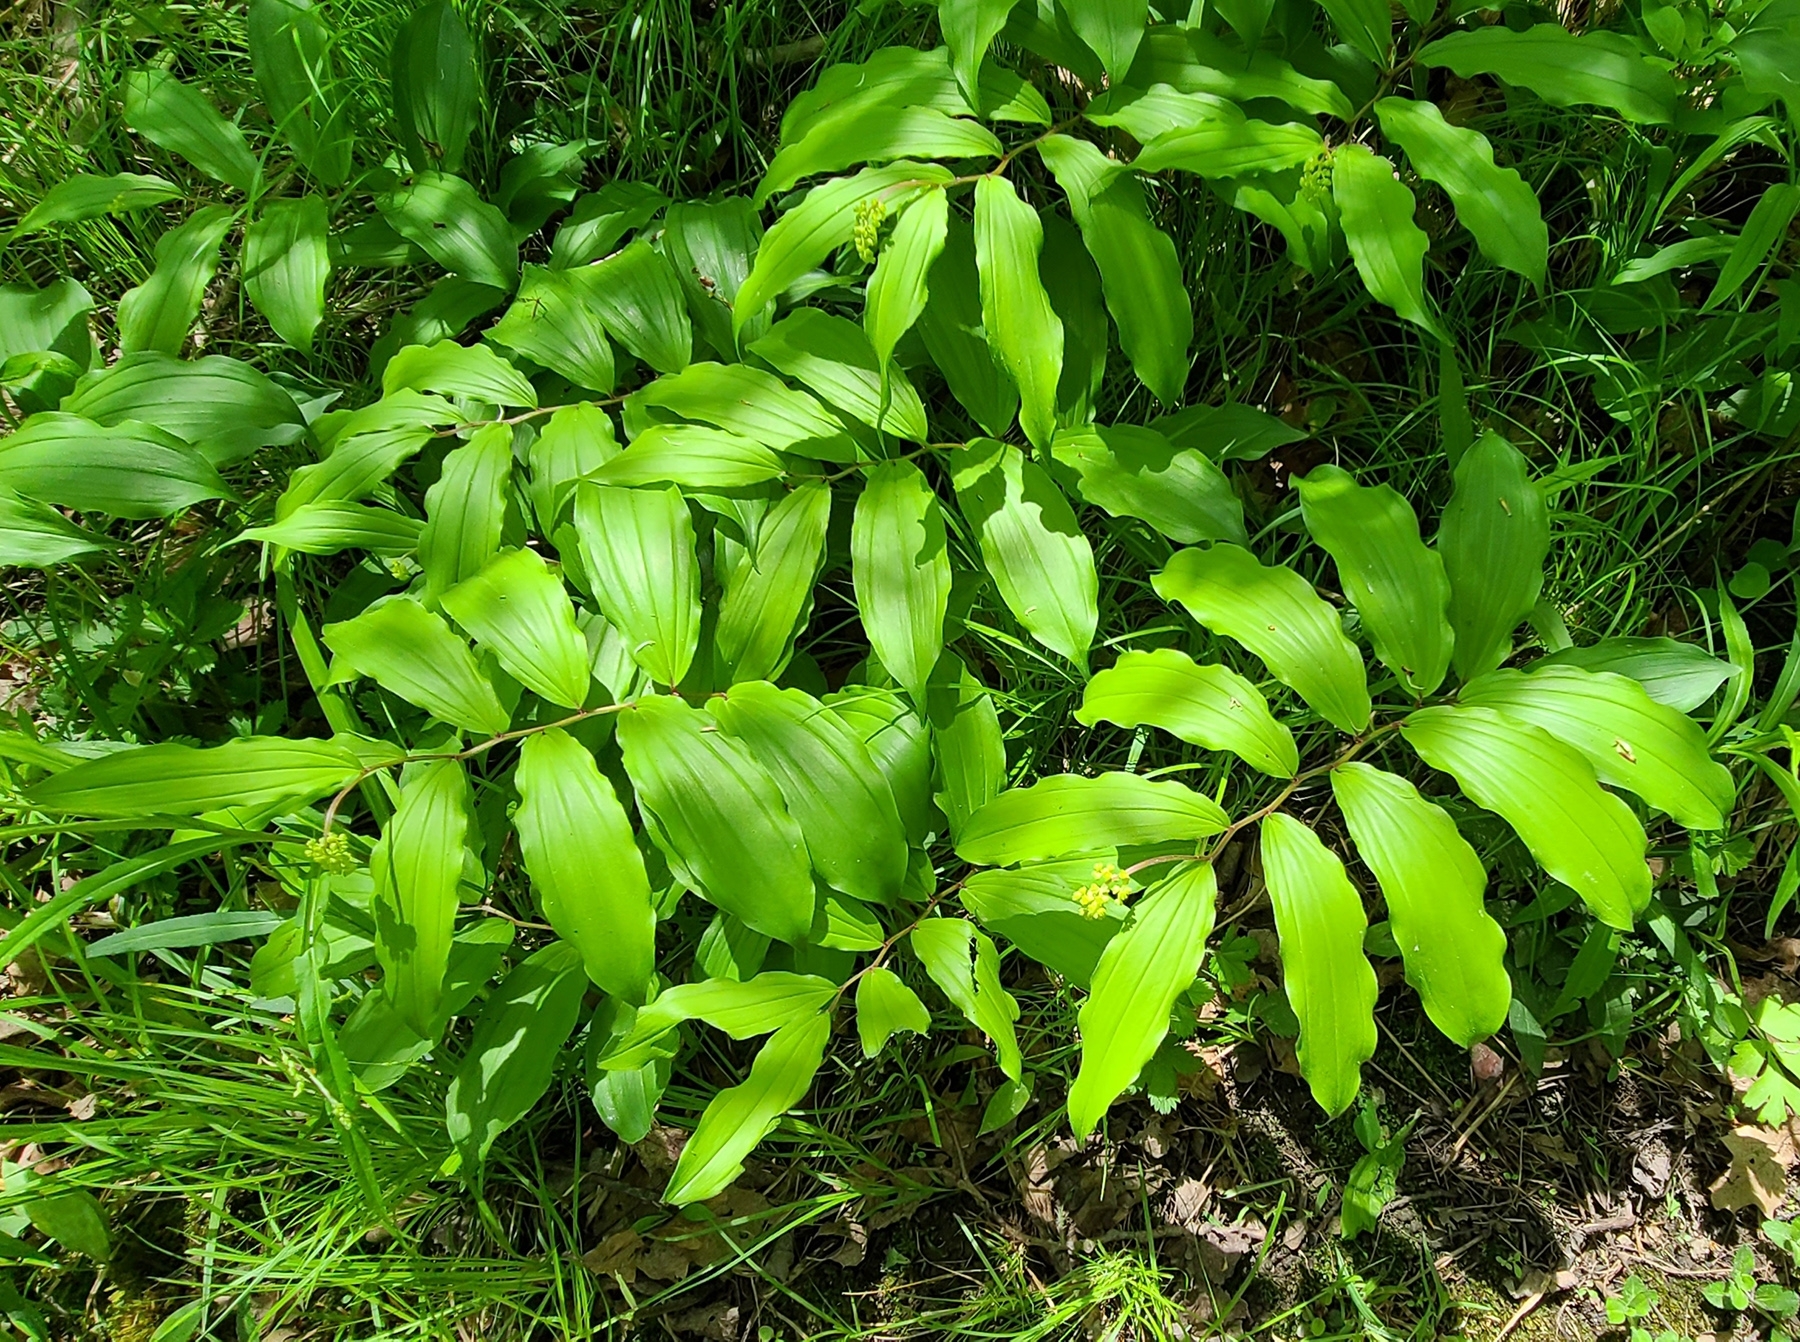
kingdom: Plantae
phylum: Tracheophyta
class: Liliopsida
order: Asparagales
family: Asparagaceae
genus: Maianthemum
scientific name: Maianthemum racemosum
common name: False spikenard
